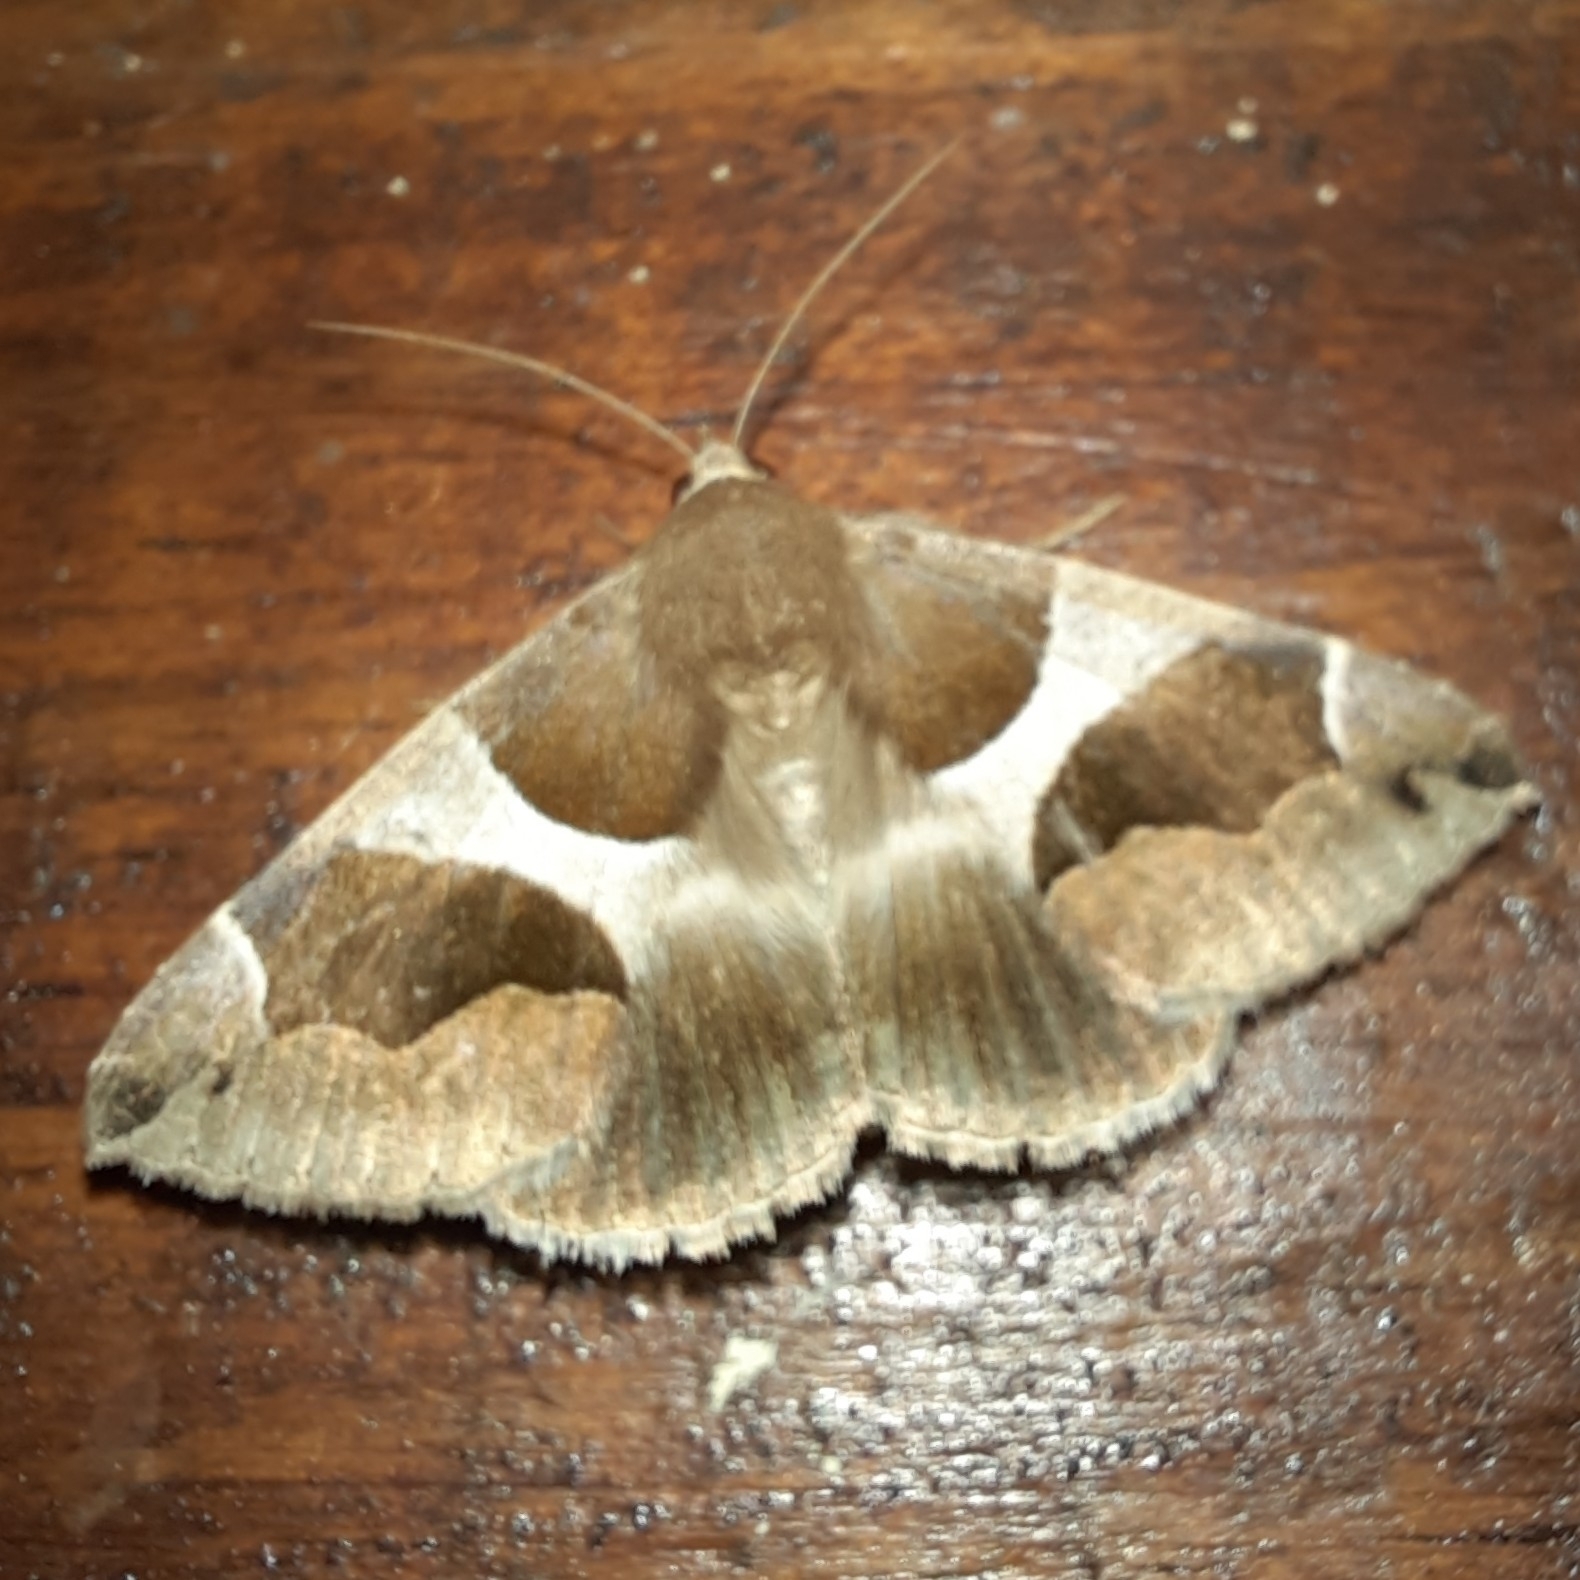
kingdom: Animalia
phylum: Arthropoda
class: Insecta
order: Lepidoptera
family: Erebidae
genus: Dysgonia
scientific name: Dysgonia algira
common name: Passenger
